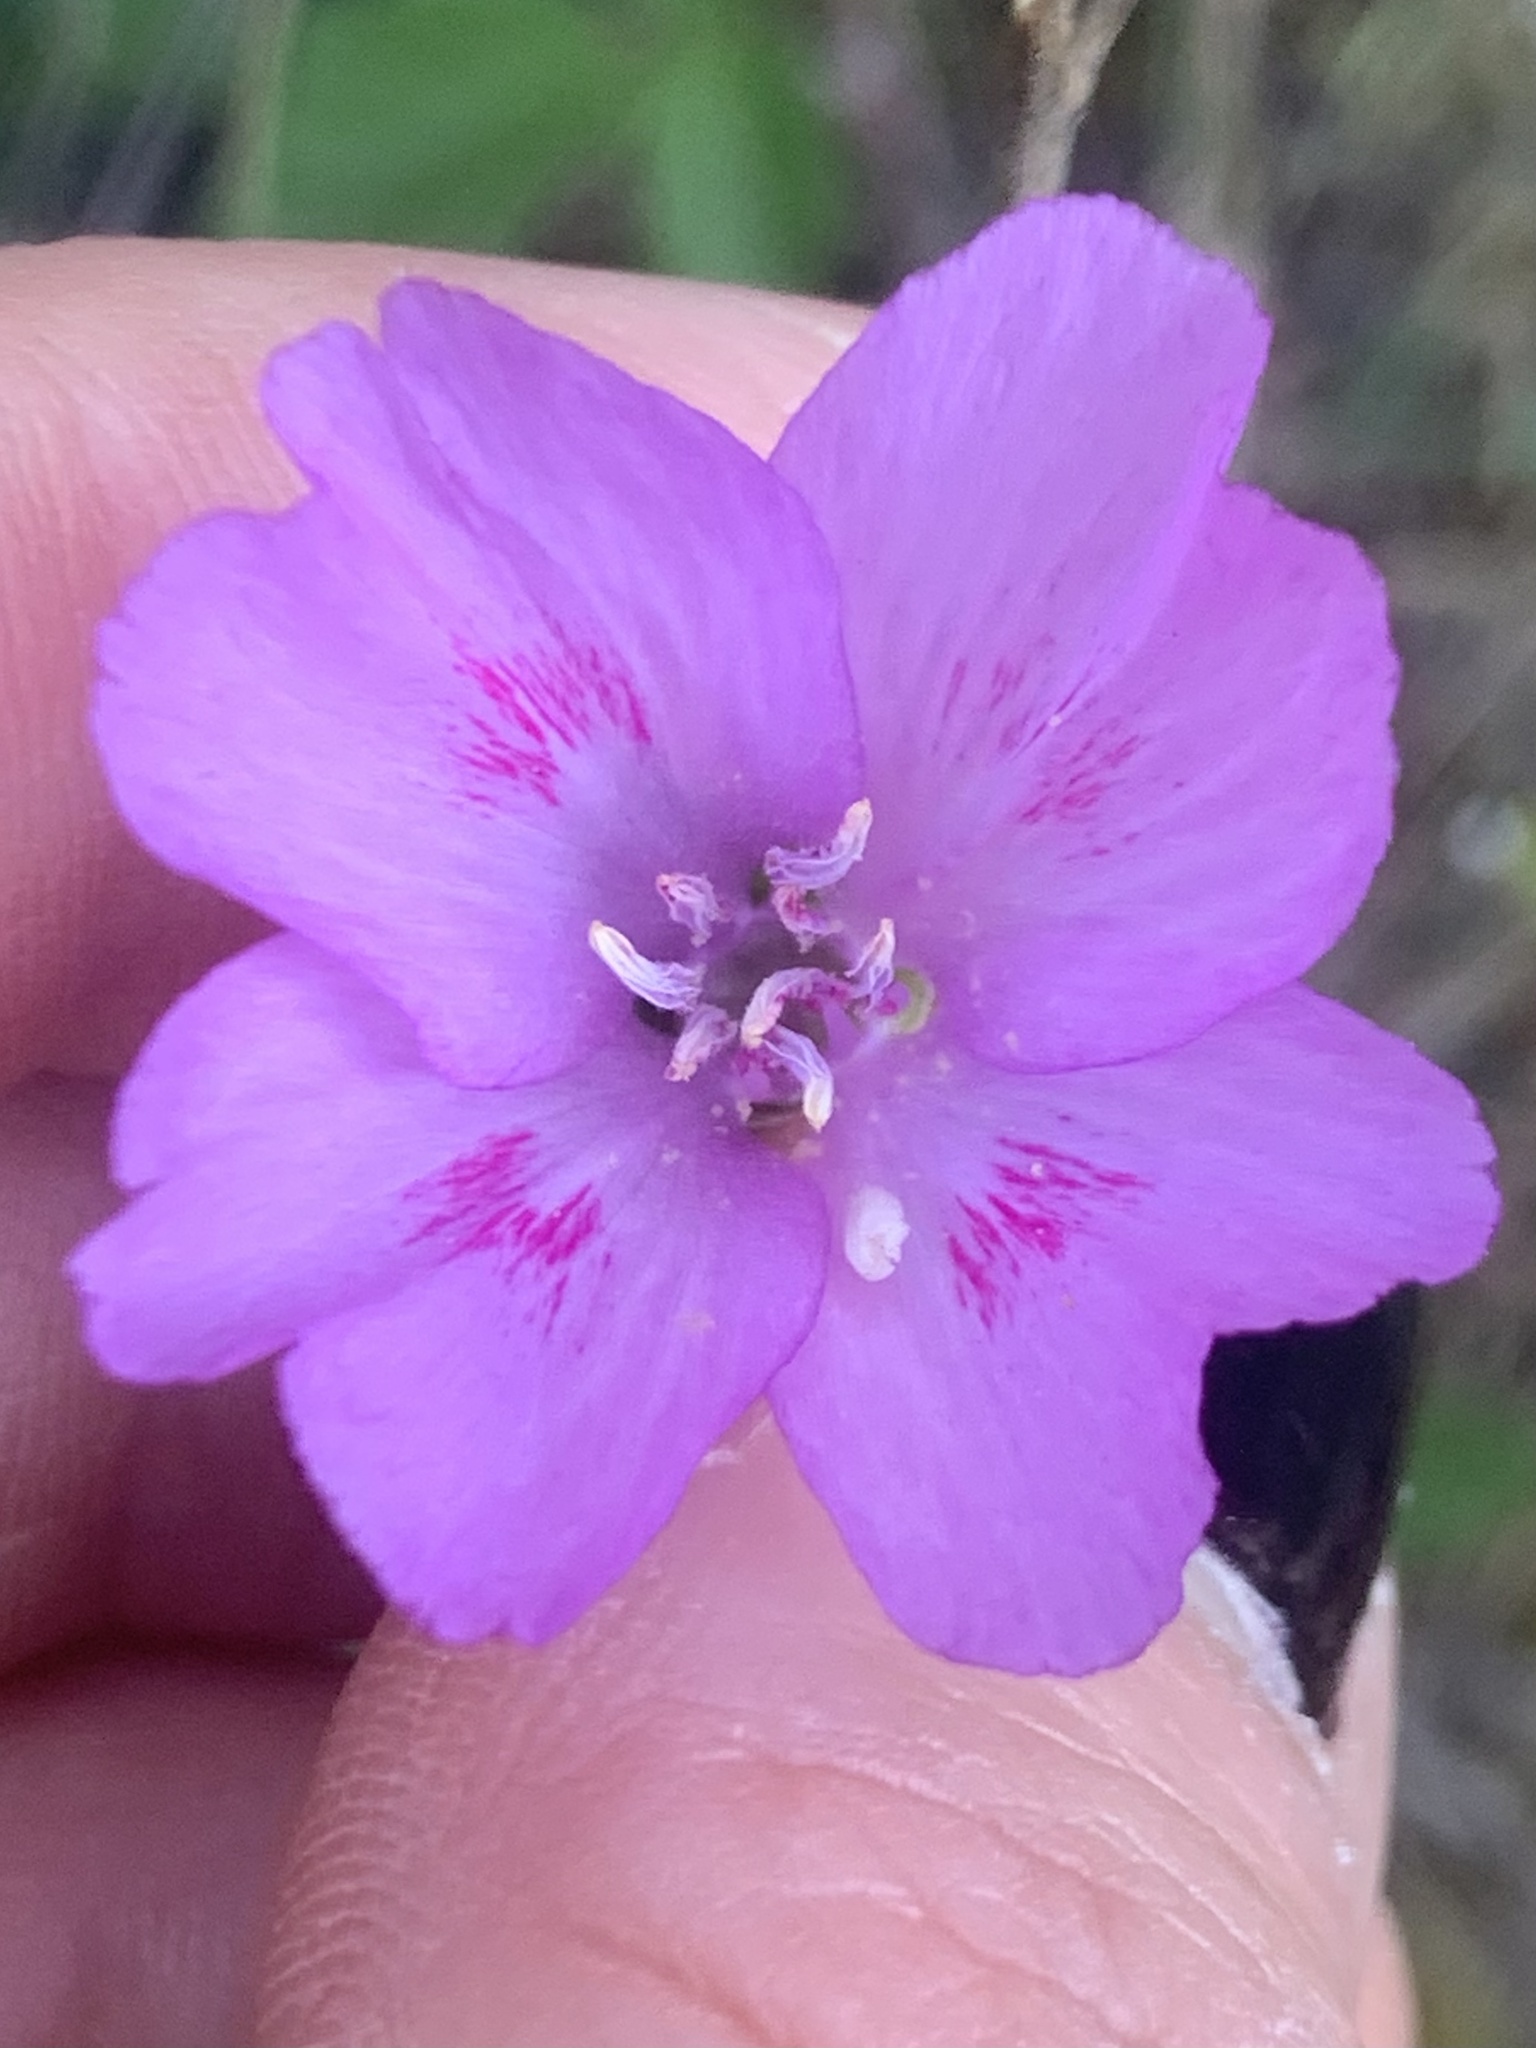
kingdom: Plantae
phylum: Tracheophyta
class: Magnoliopsida
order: Myrtales
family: Onagraceae
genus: Clarkia
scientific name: Clarkia amoena
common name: Godetia
